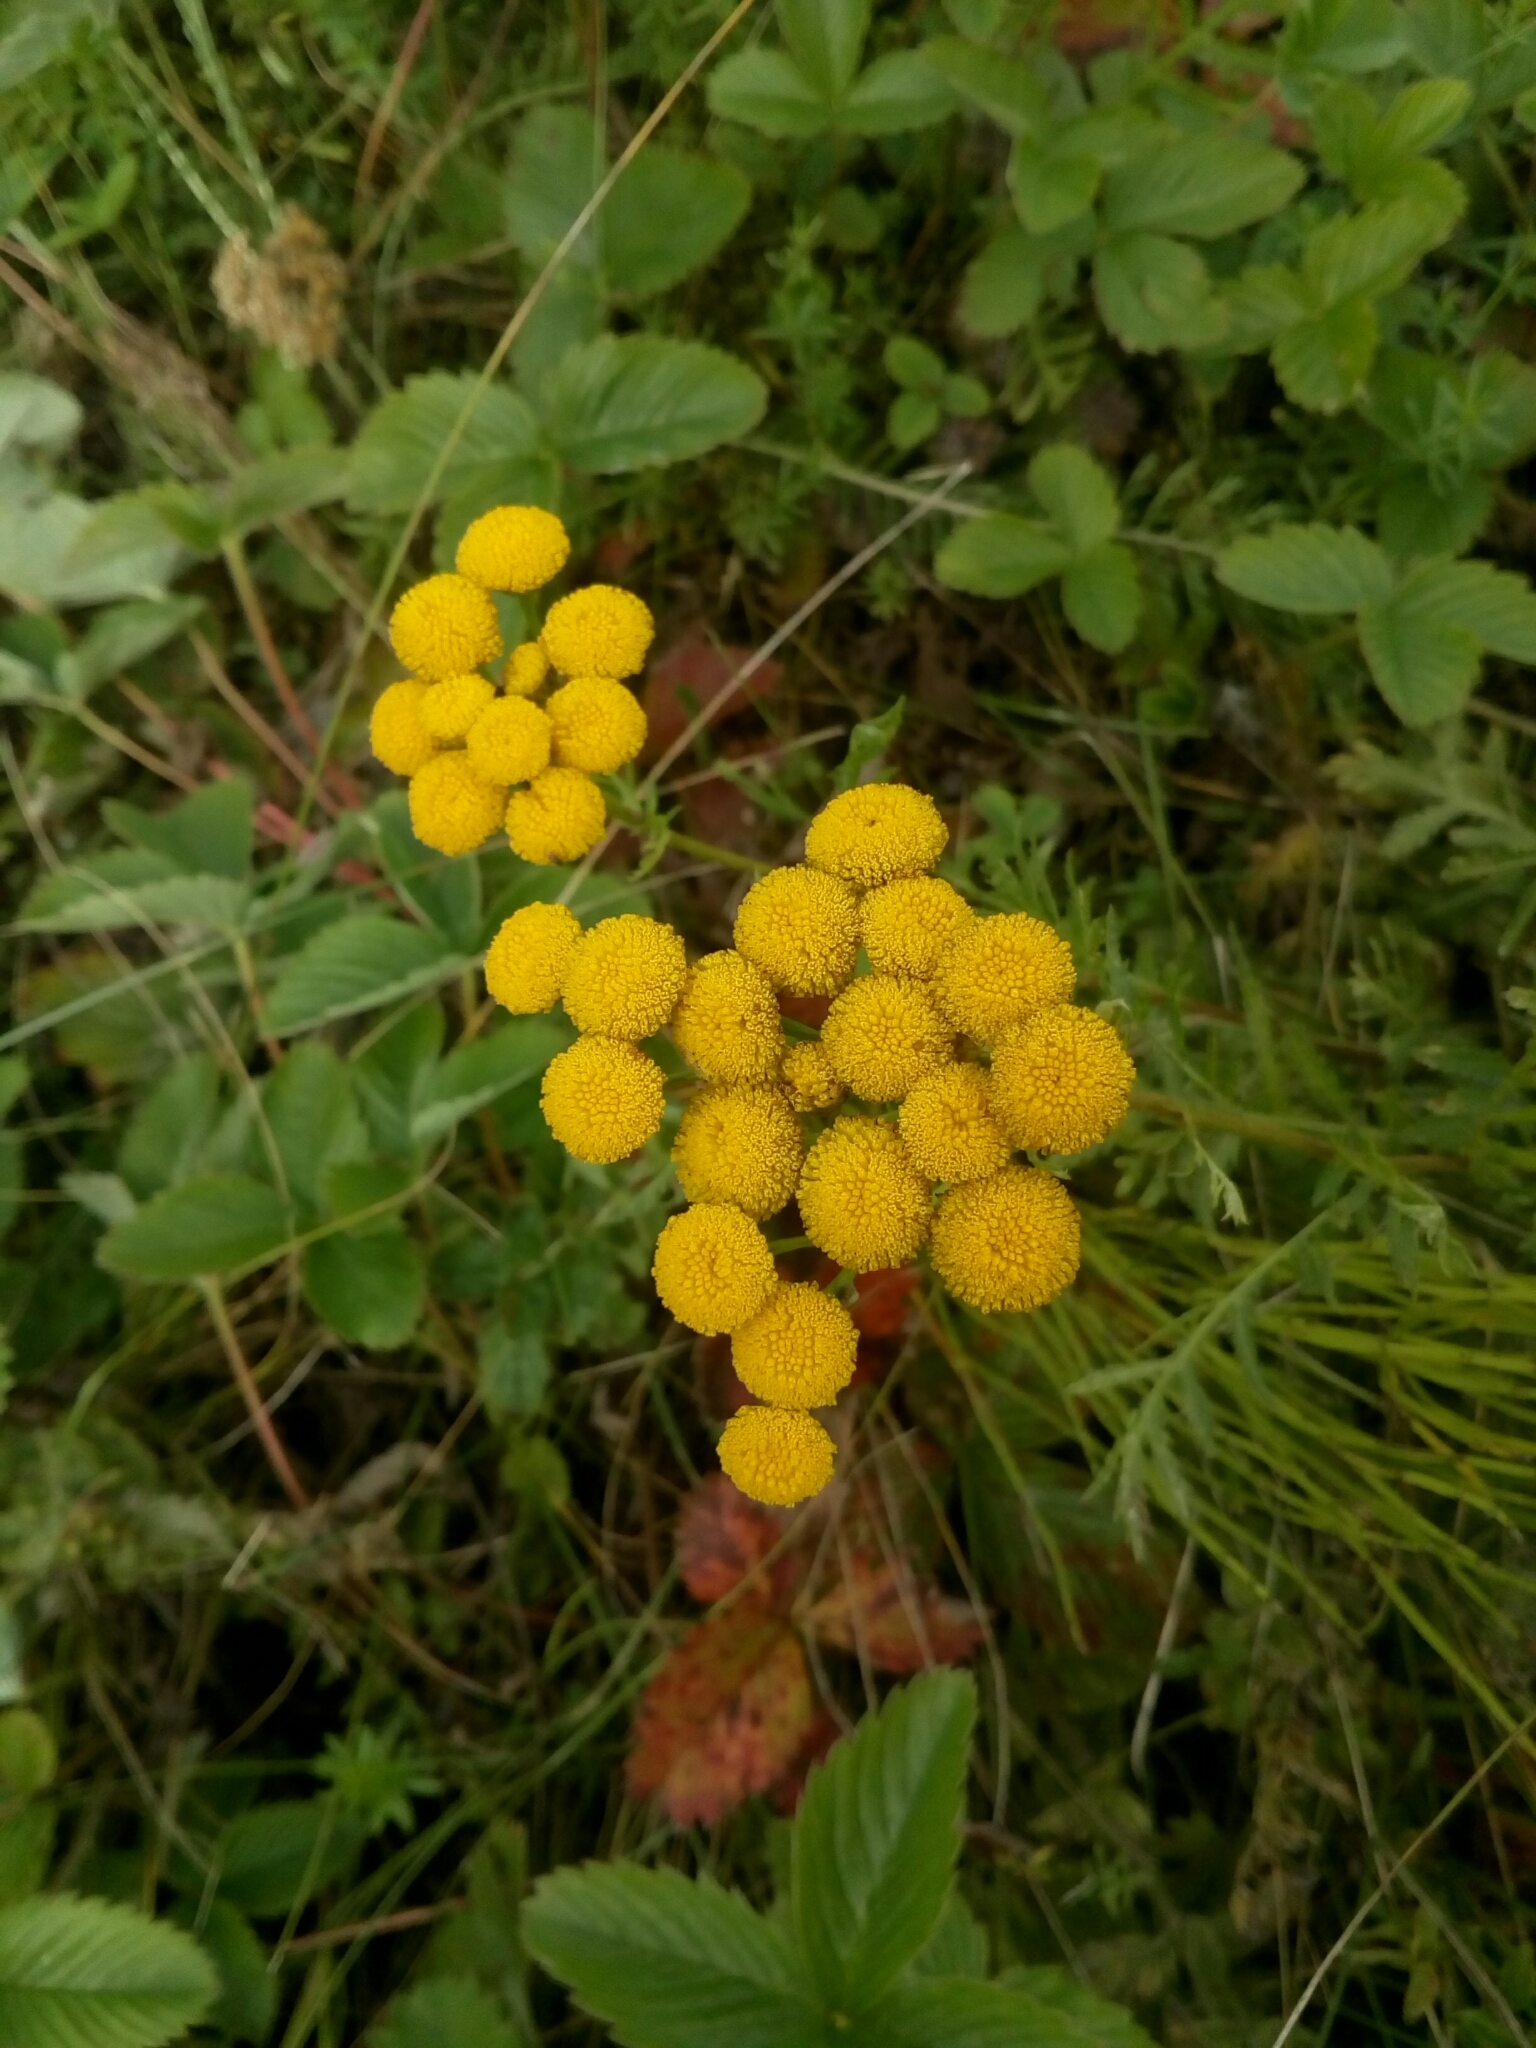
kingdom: Plantae
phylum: Tracheophyta
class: Magnoliopsida
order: Asterales
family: Asteraceae
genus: Tanacetum
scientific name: Tanacetum vulgare
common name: Common tansy
